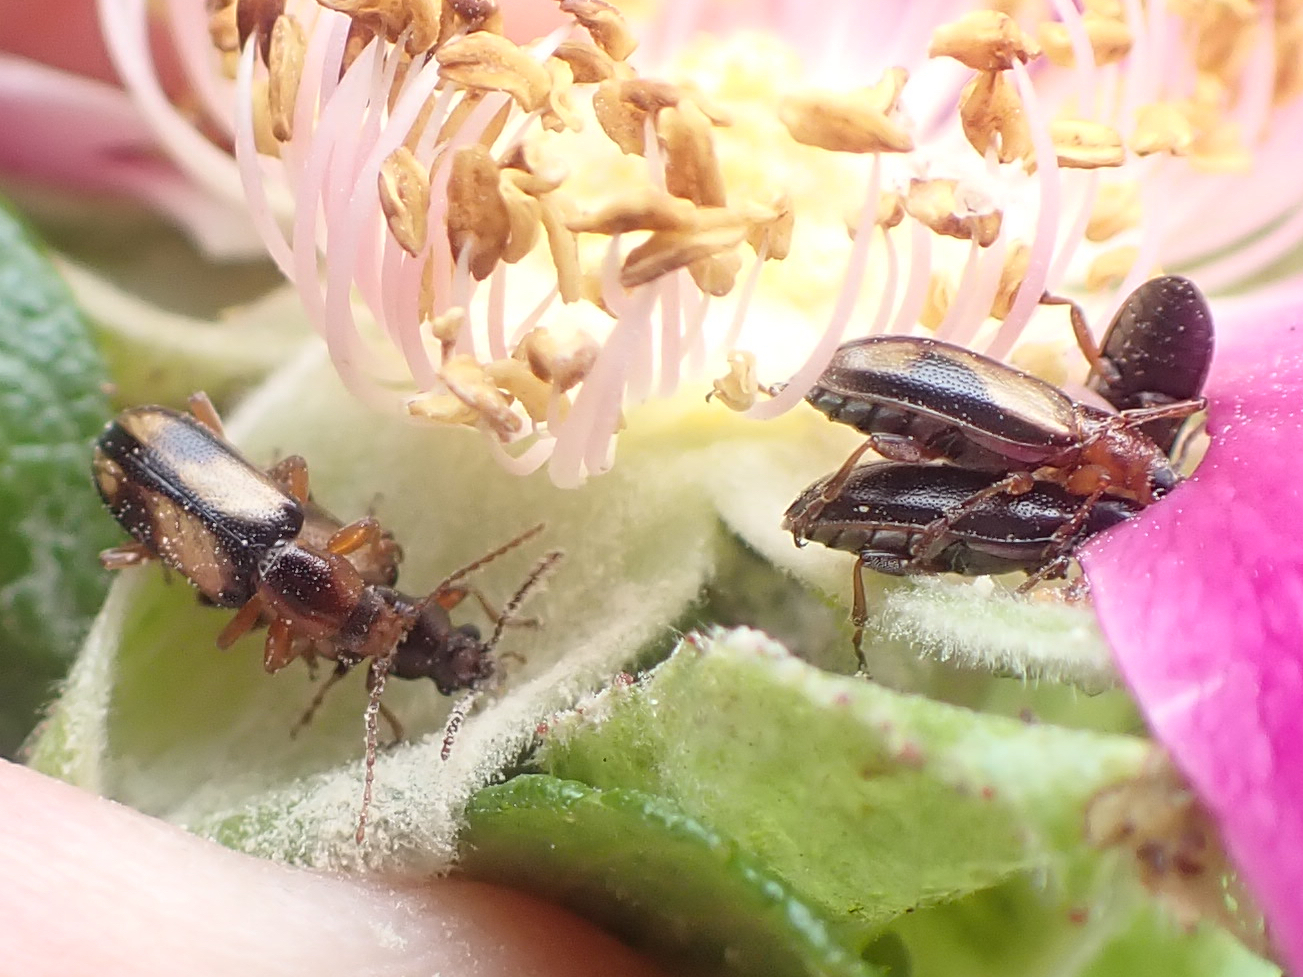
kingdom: Animalia
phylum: Arthropoda
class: Insecta
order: Coleoptera
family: Orsodacnidae
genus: Orsodacne
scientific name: Orsodacne atra
